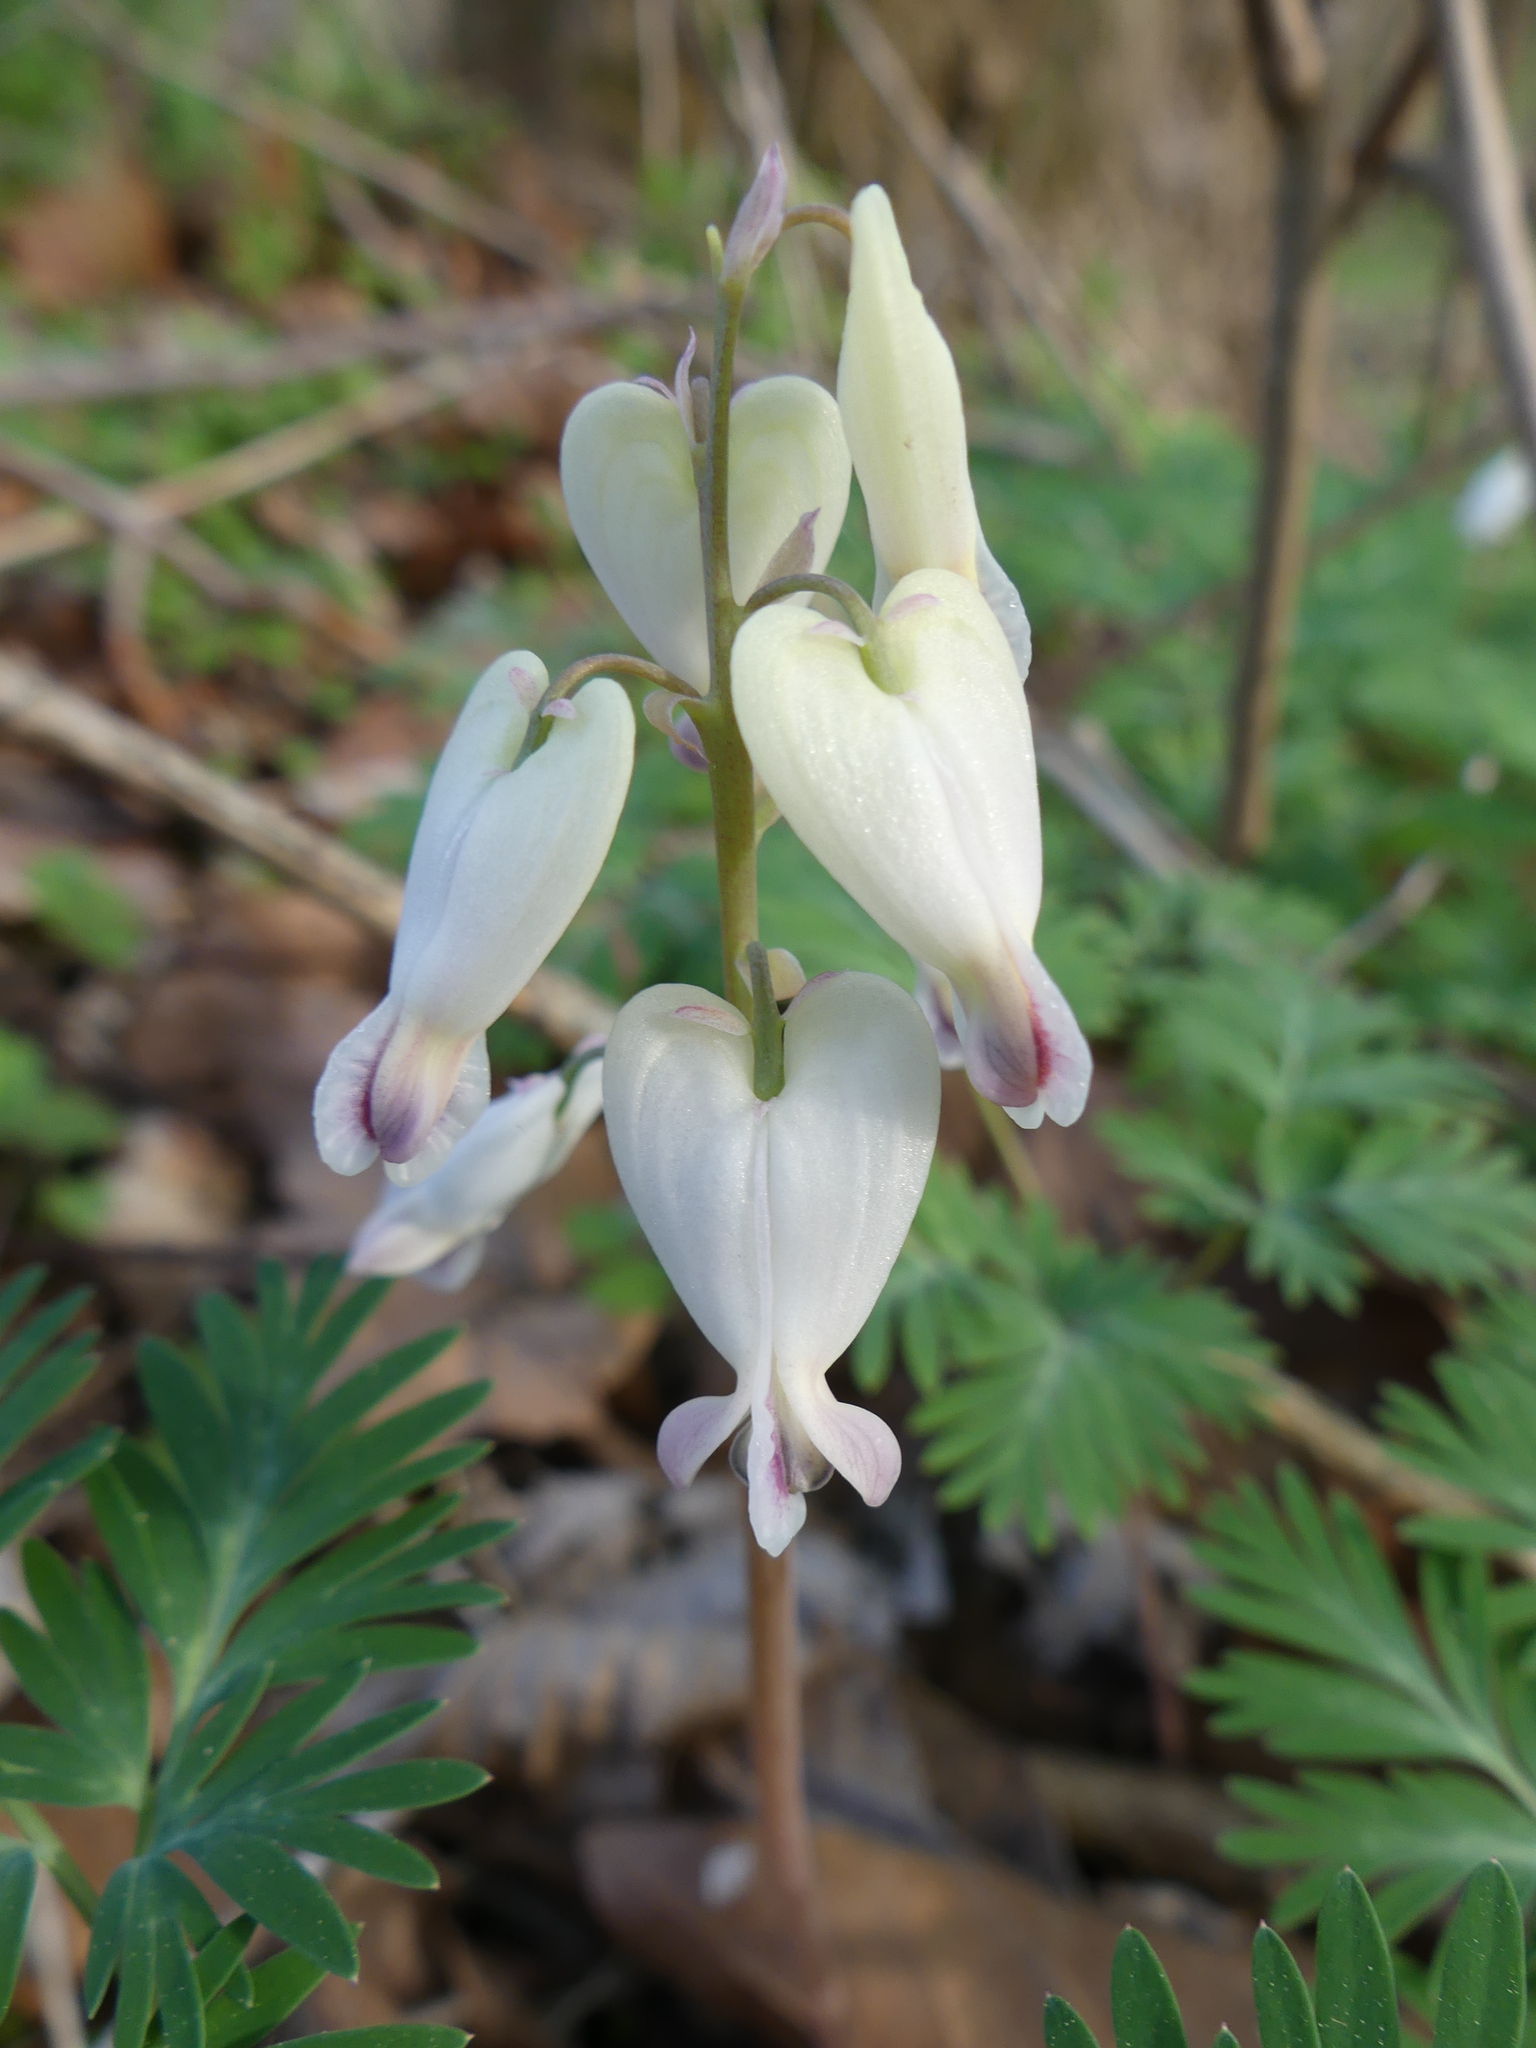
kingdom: Plantae
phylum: Tracheophyta
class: Magnoliopsida
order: Ranunculales
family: Papaveraceae
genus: Dicentra
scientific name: Dicentra canadensis
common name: Squirrel-corn
